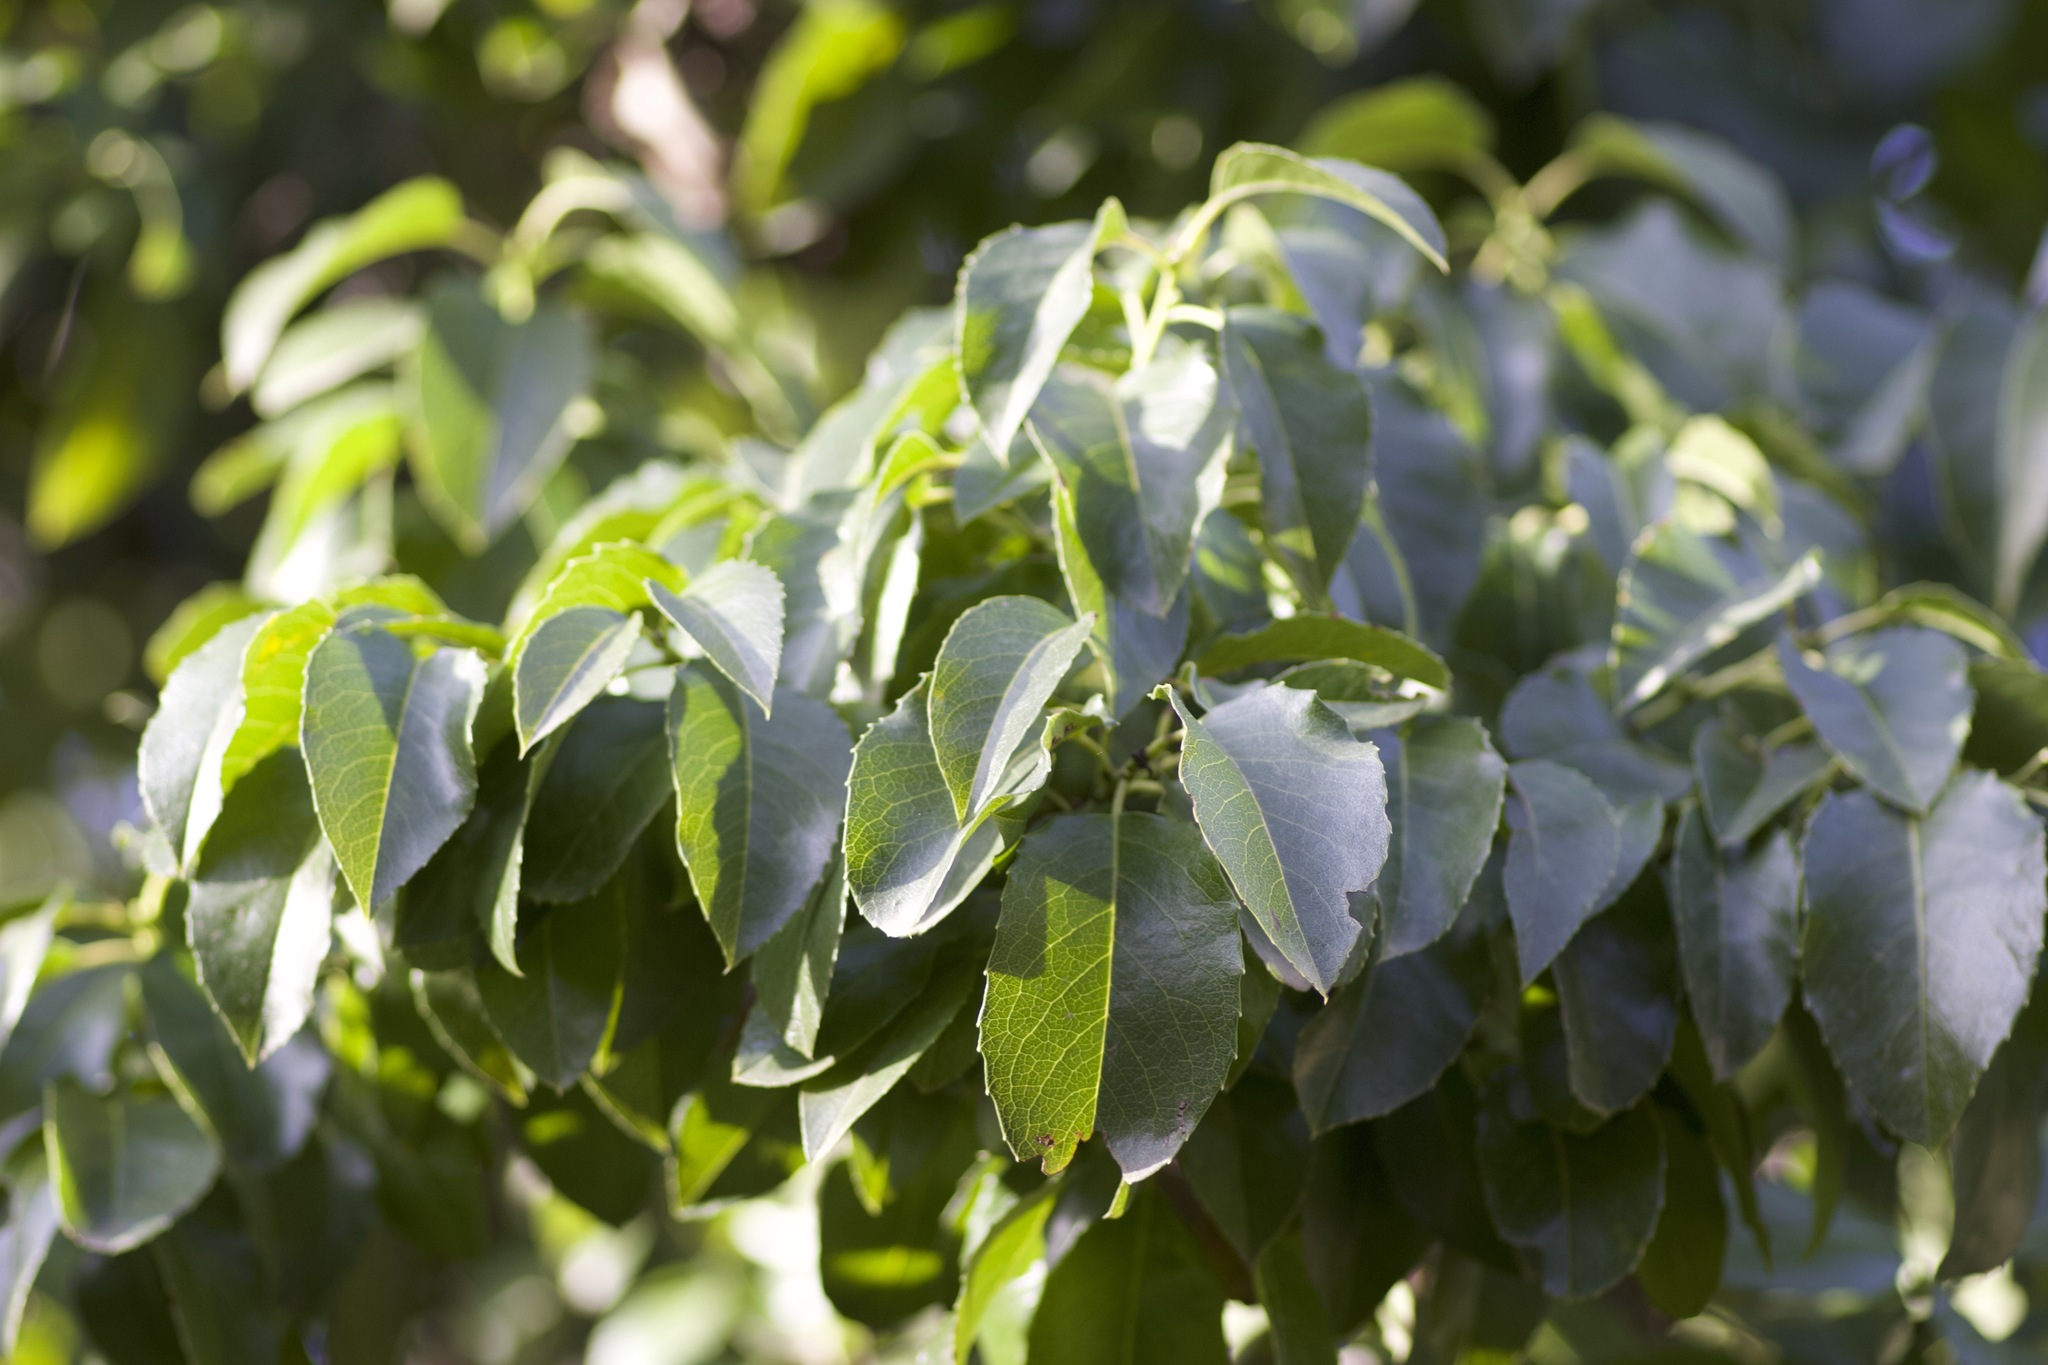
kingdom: Plantae
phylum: Tracheophyta
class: Magnoliopsida
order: Rosales
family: Rosaceae
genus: Prunus
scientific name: Prunus ilicifolia
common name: Hollyleaf cherry
